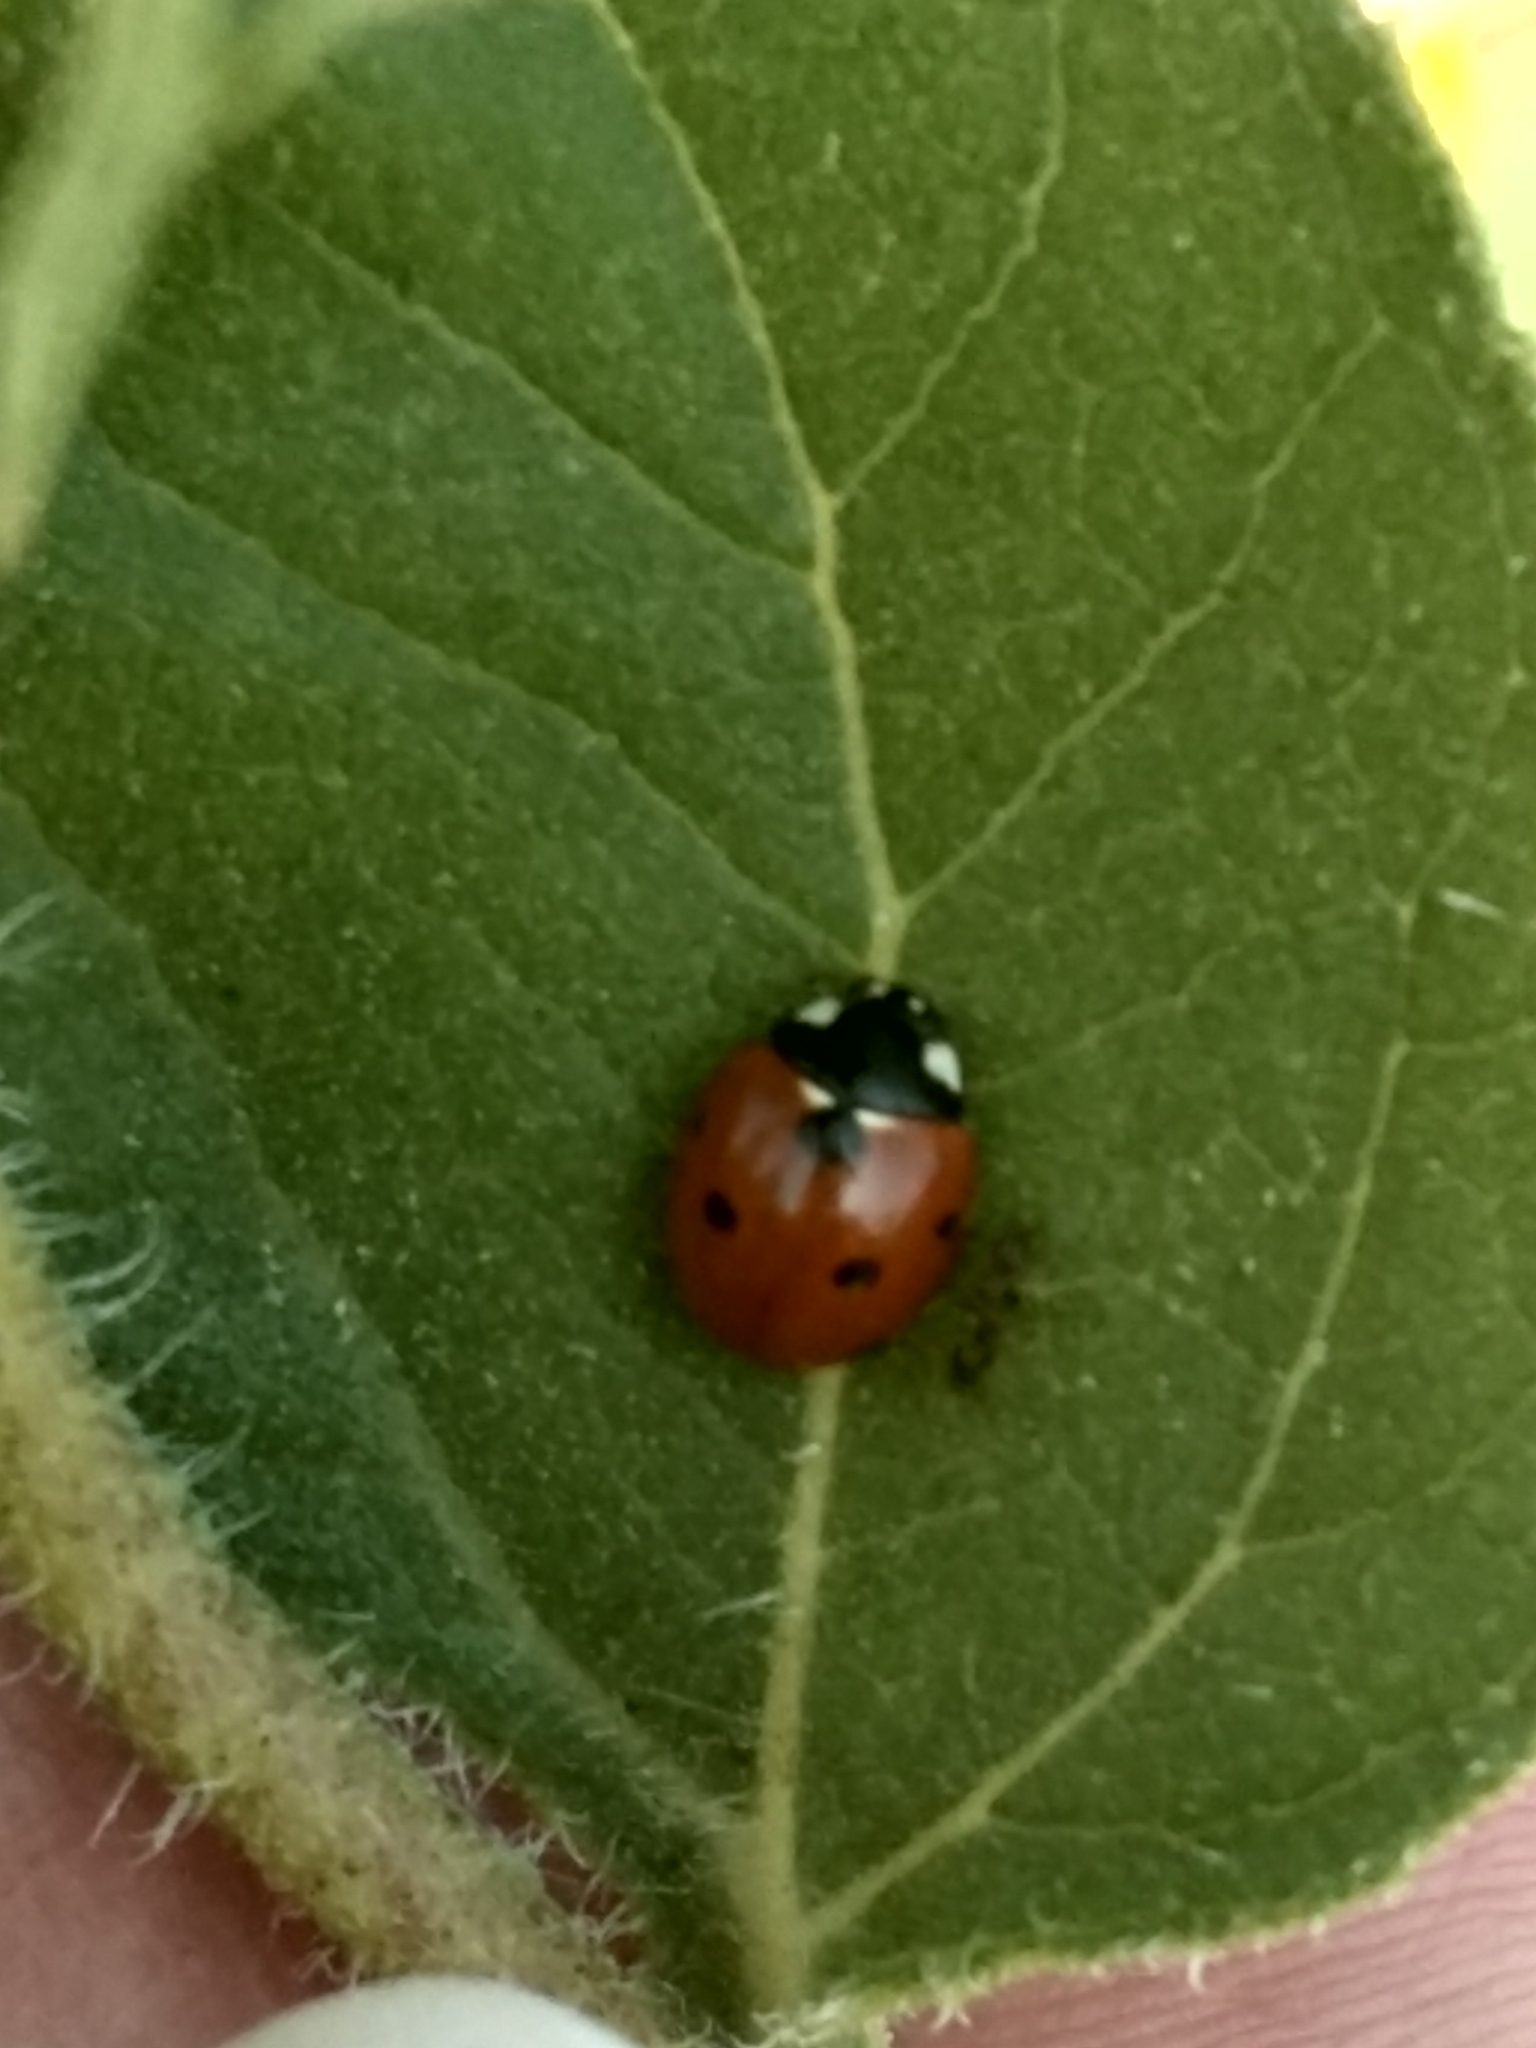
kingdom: Animalia
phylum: Arthropoda
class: Insecta
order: Coleoptera
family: Coccinellidae
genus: Coccinella
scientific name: Coccinella septempunctata
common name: Sevenspotted lady beetle
